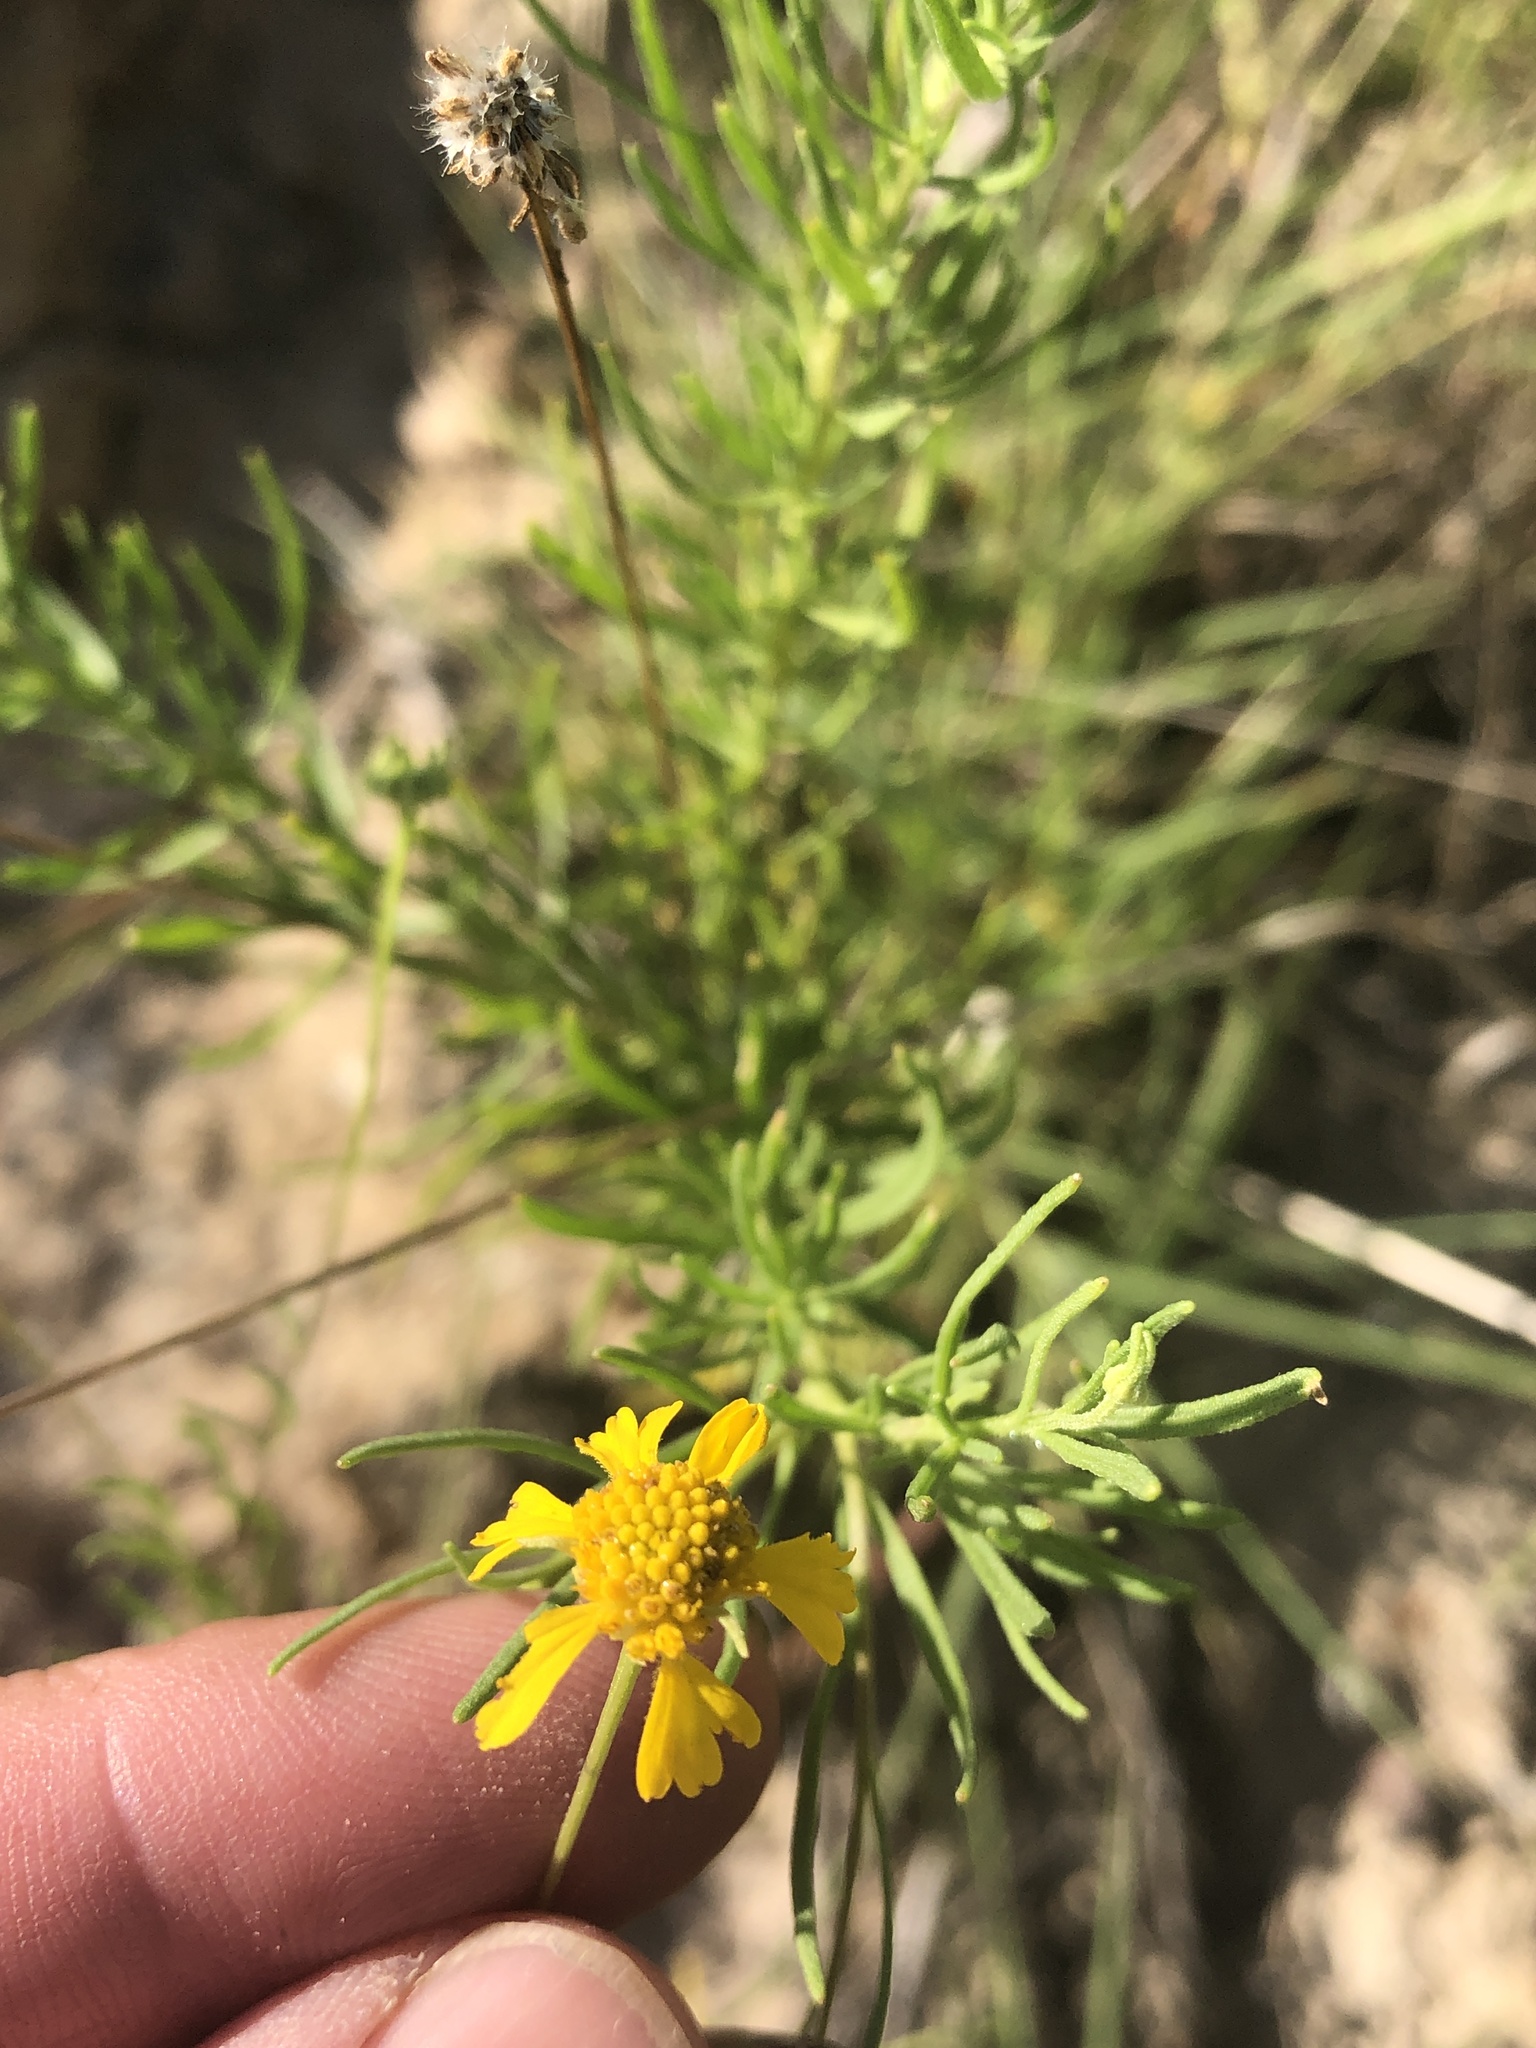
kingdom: Plantae
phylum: Tracheophyta
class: Magnoliopsida
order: Asterales
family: Asteraceae
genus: Helenium
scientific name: Helenium amarum
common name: Bitter sneezeweed
